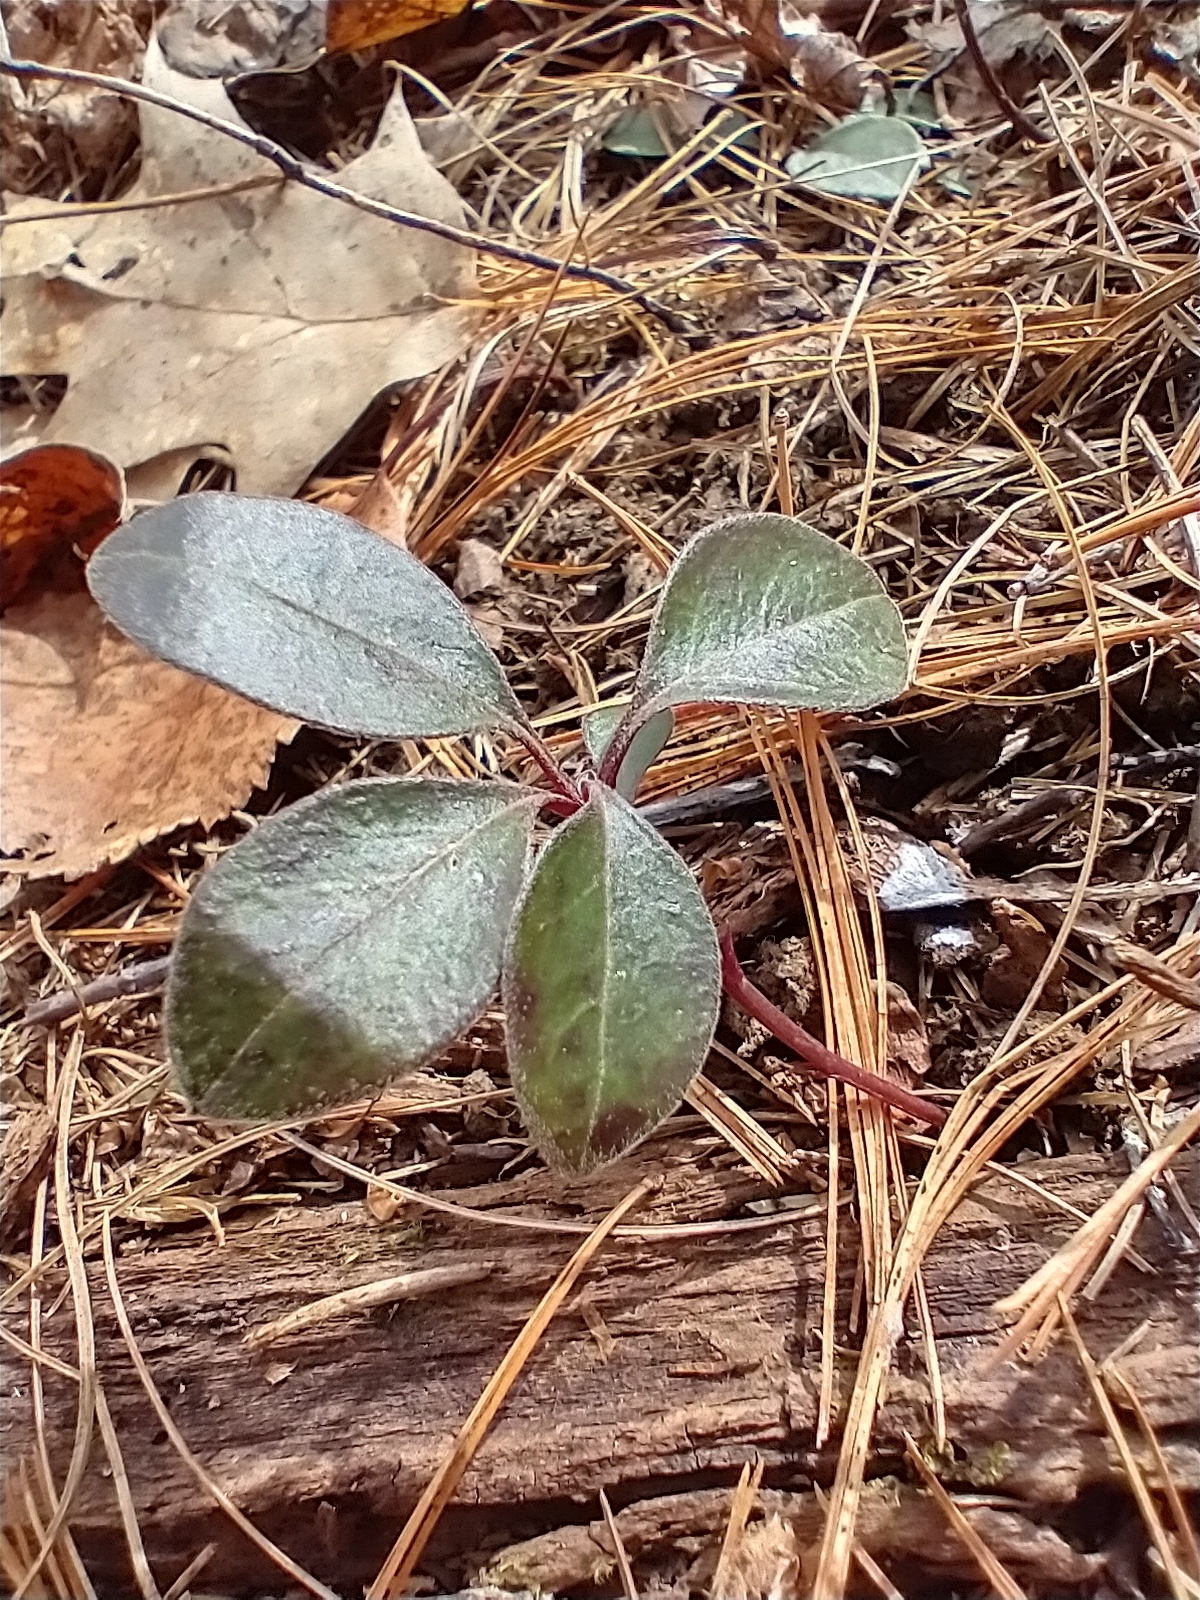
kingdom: Plantae
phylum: Tracheophyta
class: Magnoliopsida
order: Fabales
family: Polygalaceae
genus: Polygaloides
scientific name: Polygaloides paucifolia
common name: Bird-on-the-wing
